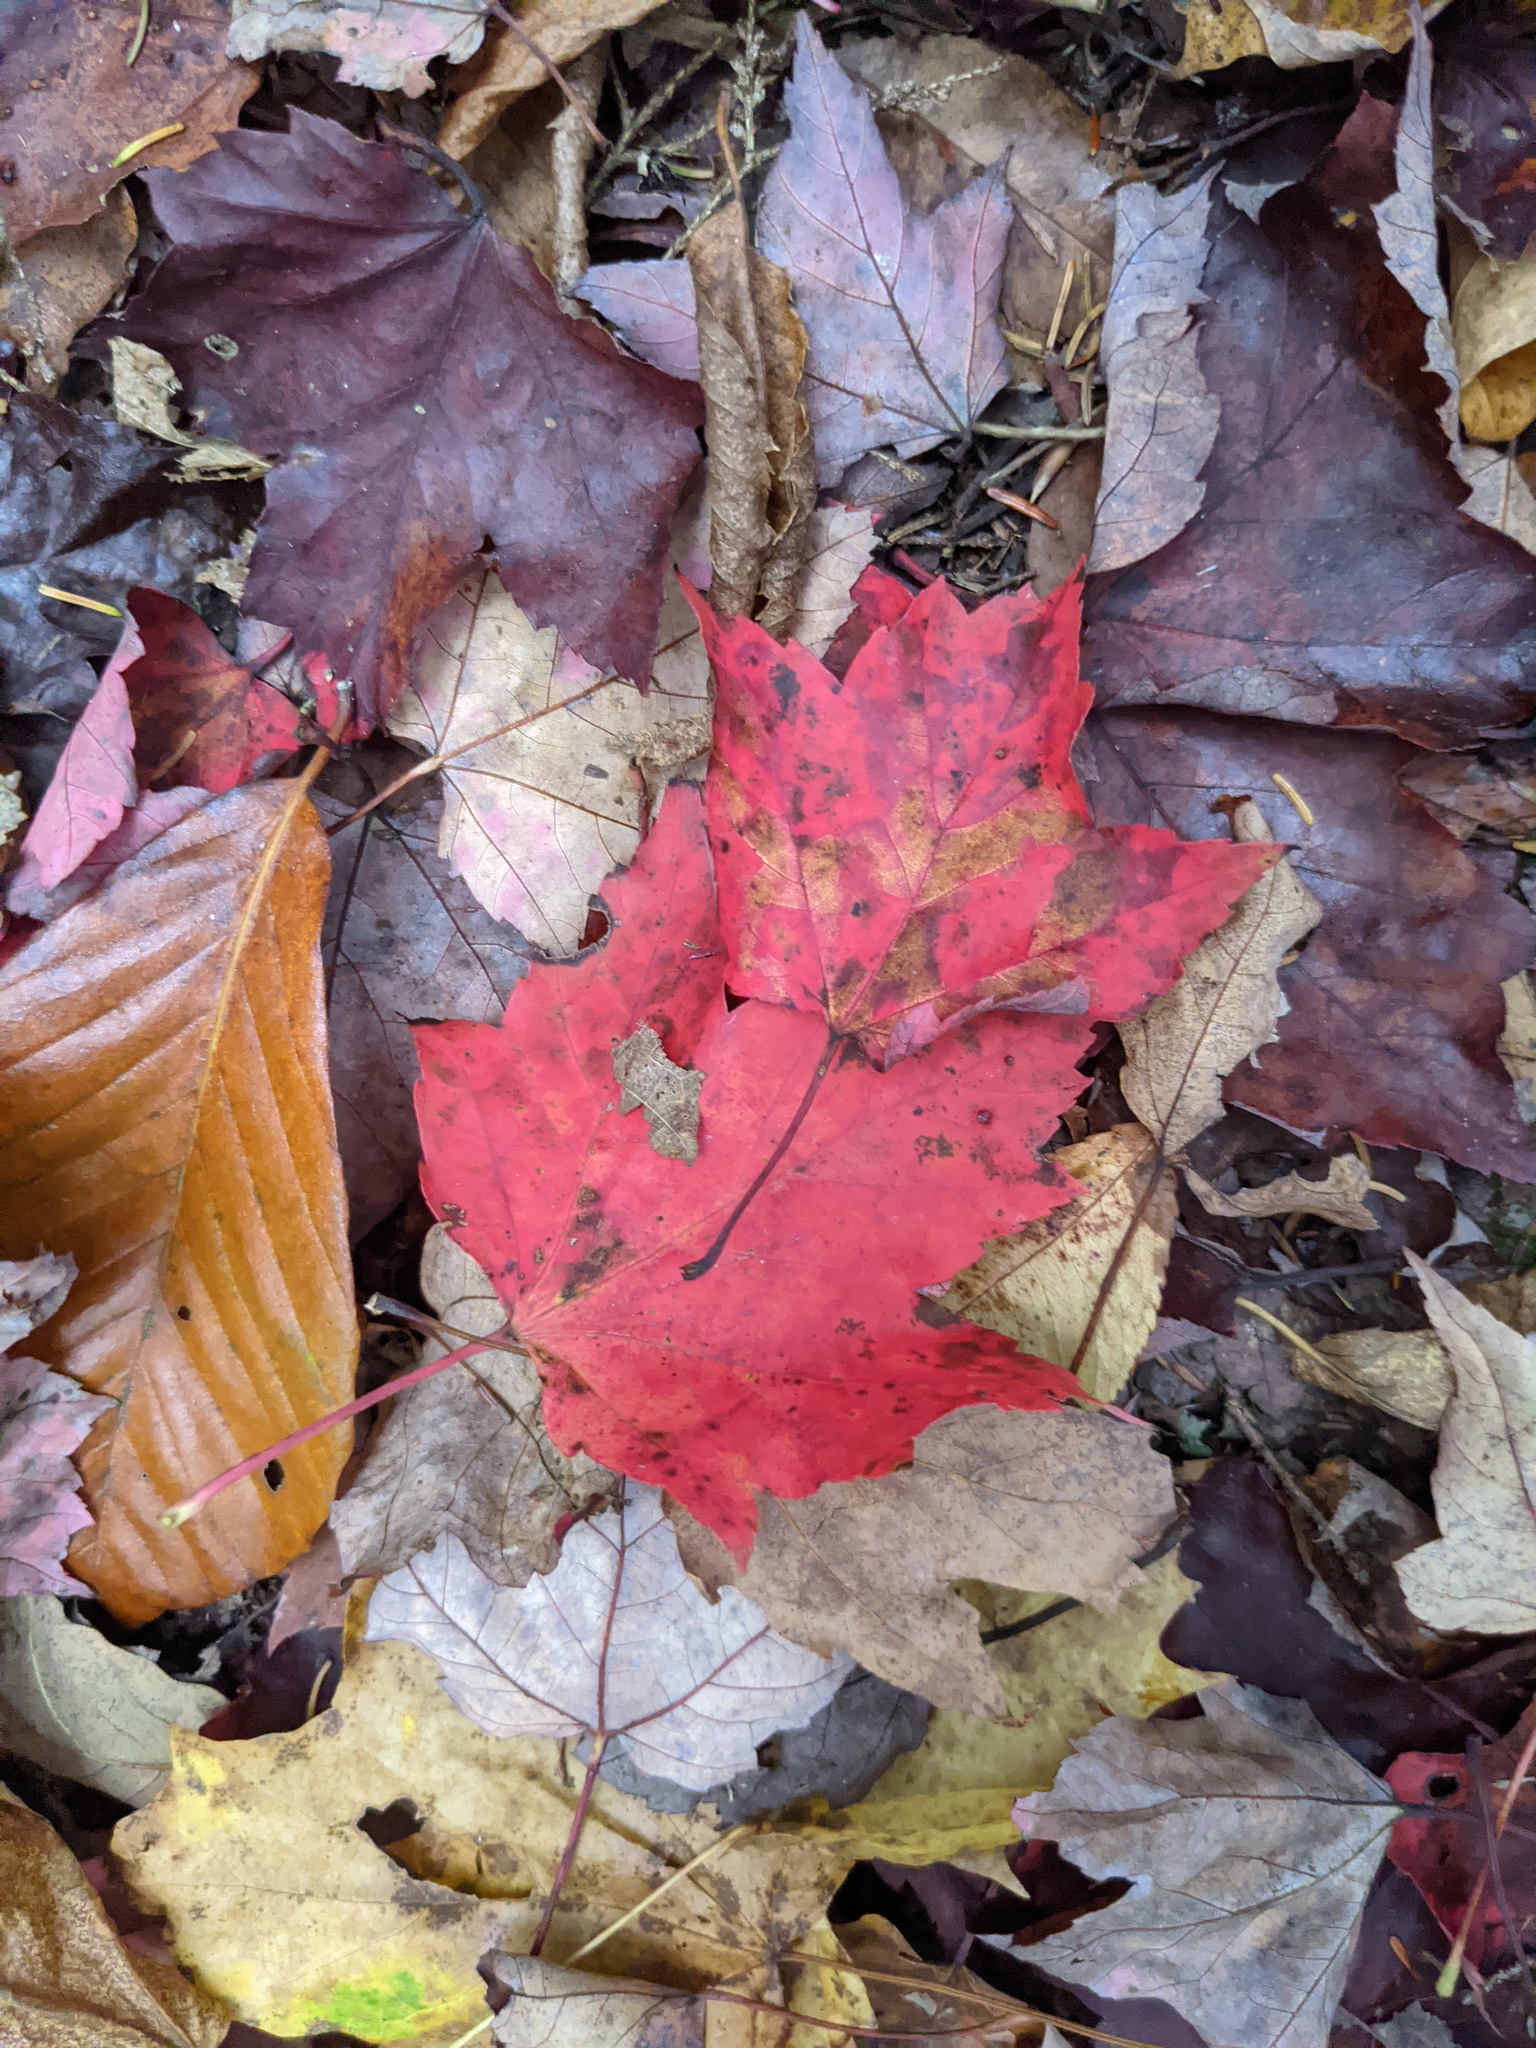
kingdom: Plantae
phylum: Tracheophyta
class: Magnoliopsida
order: Sapindales
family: Sapindaceae
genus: Acer
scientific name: Acer rubrum
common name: Red maple
